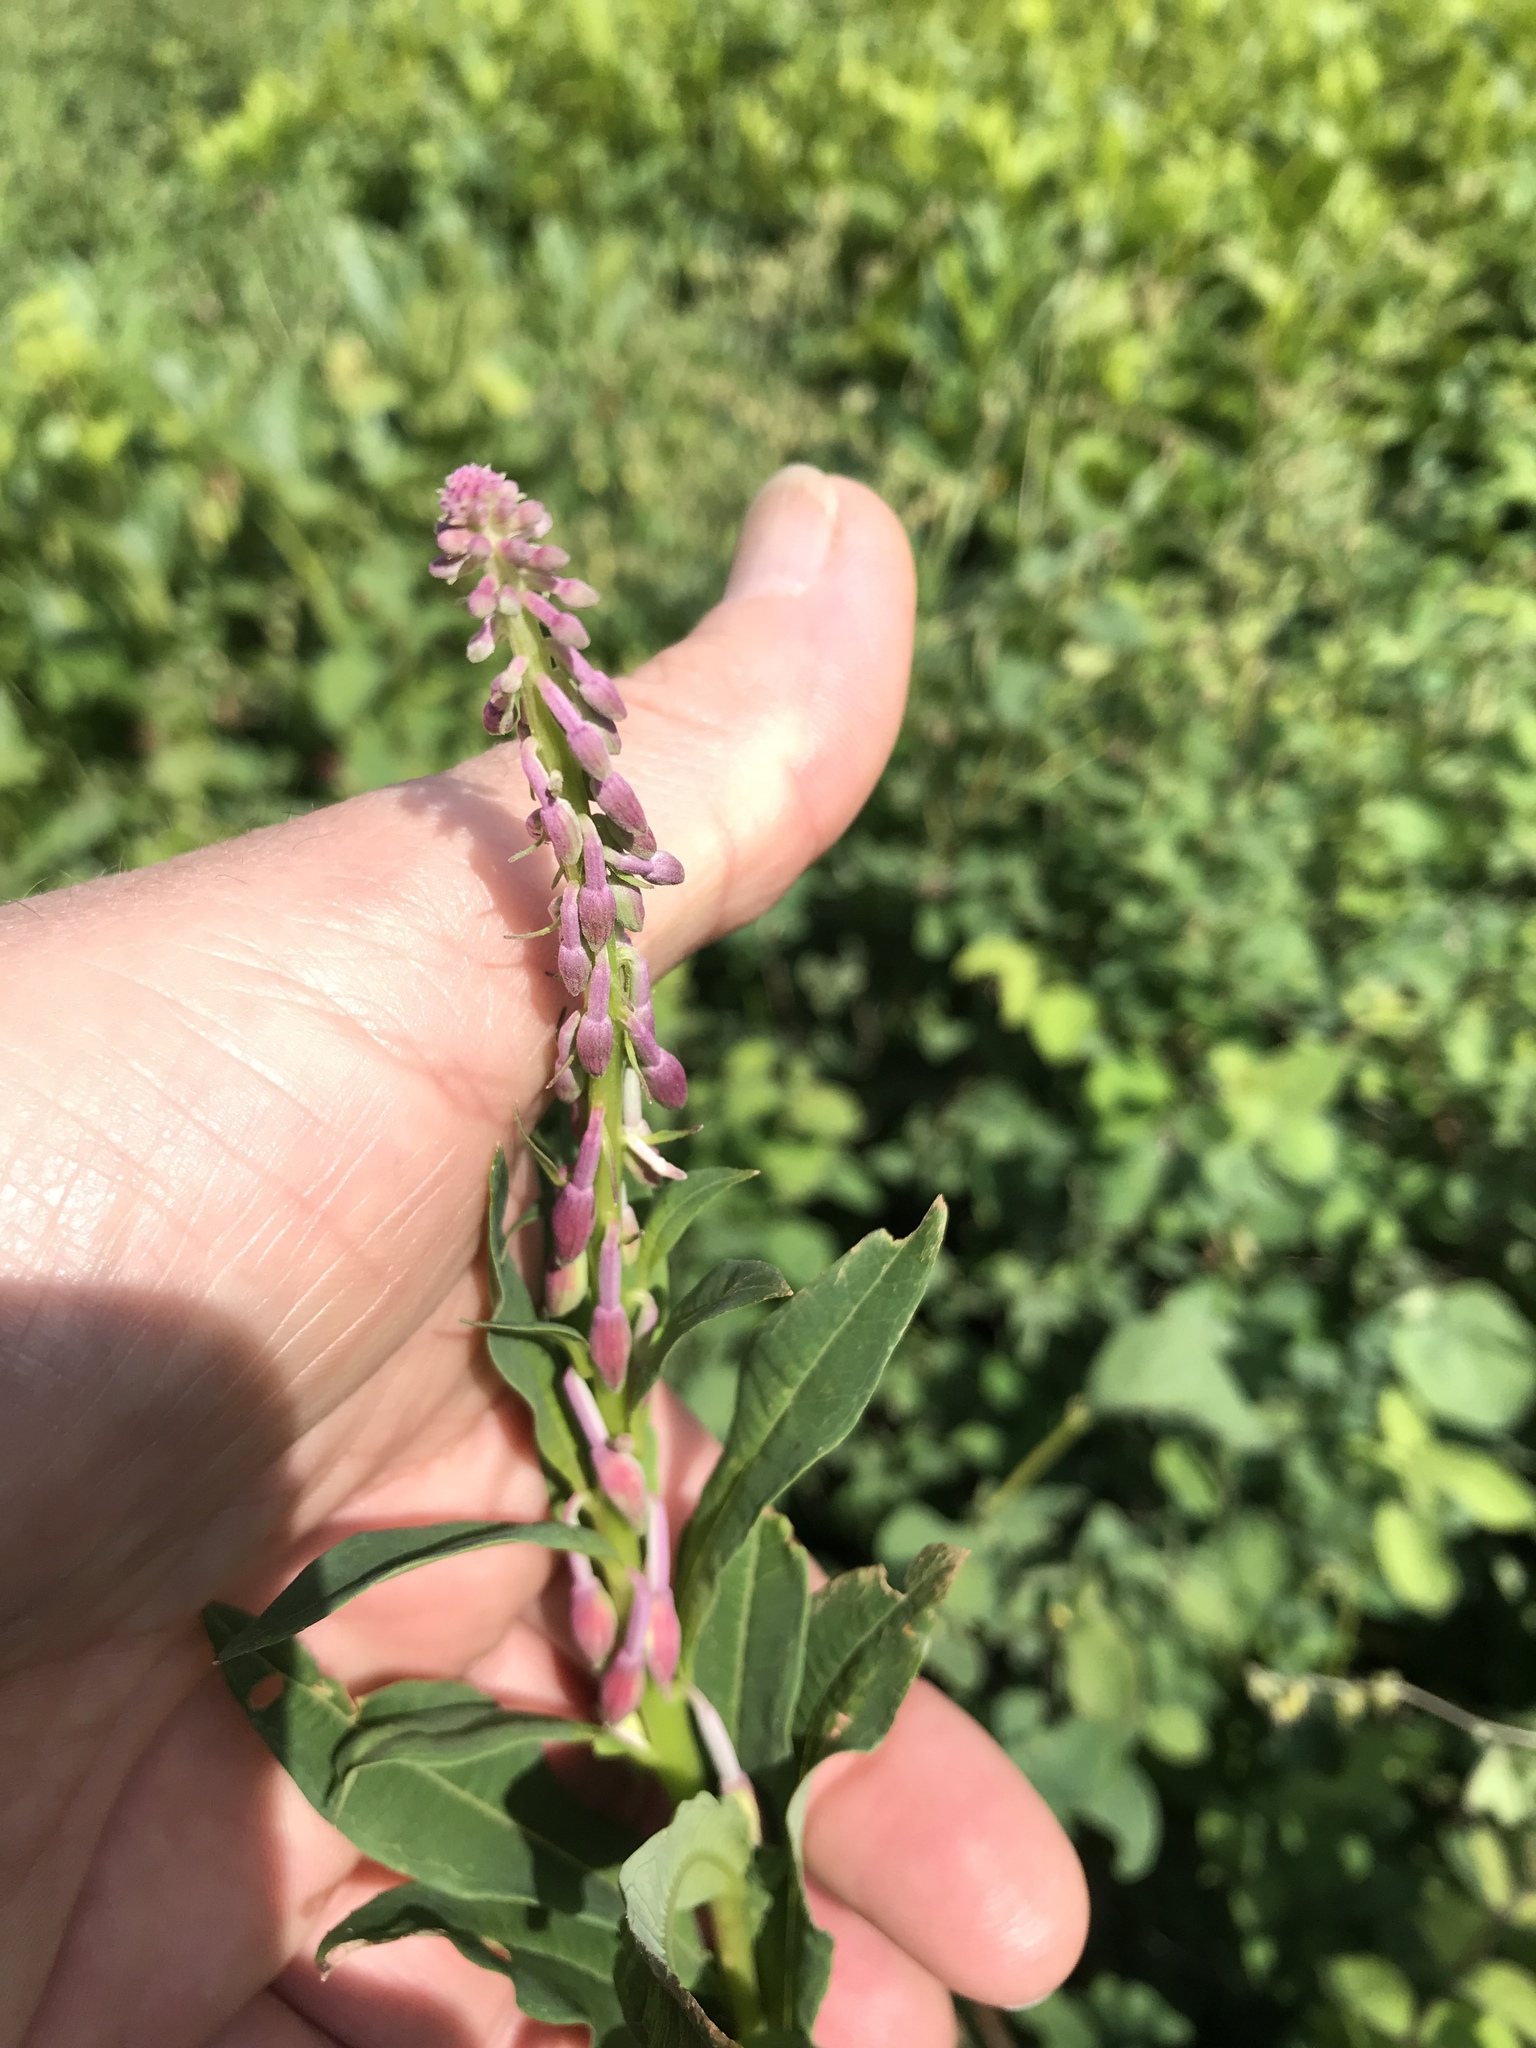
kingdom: Plantae
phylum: Tracheophyta
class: Magnoliopsida
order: Myrtales
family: Onagraceae
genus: Chamaenerion
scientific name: Chamaenerion angustifolium
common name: Fireweed
